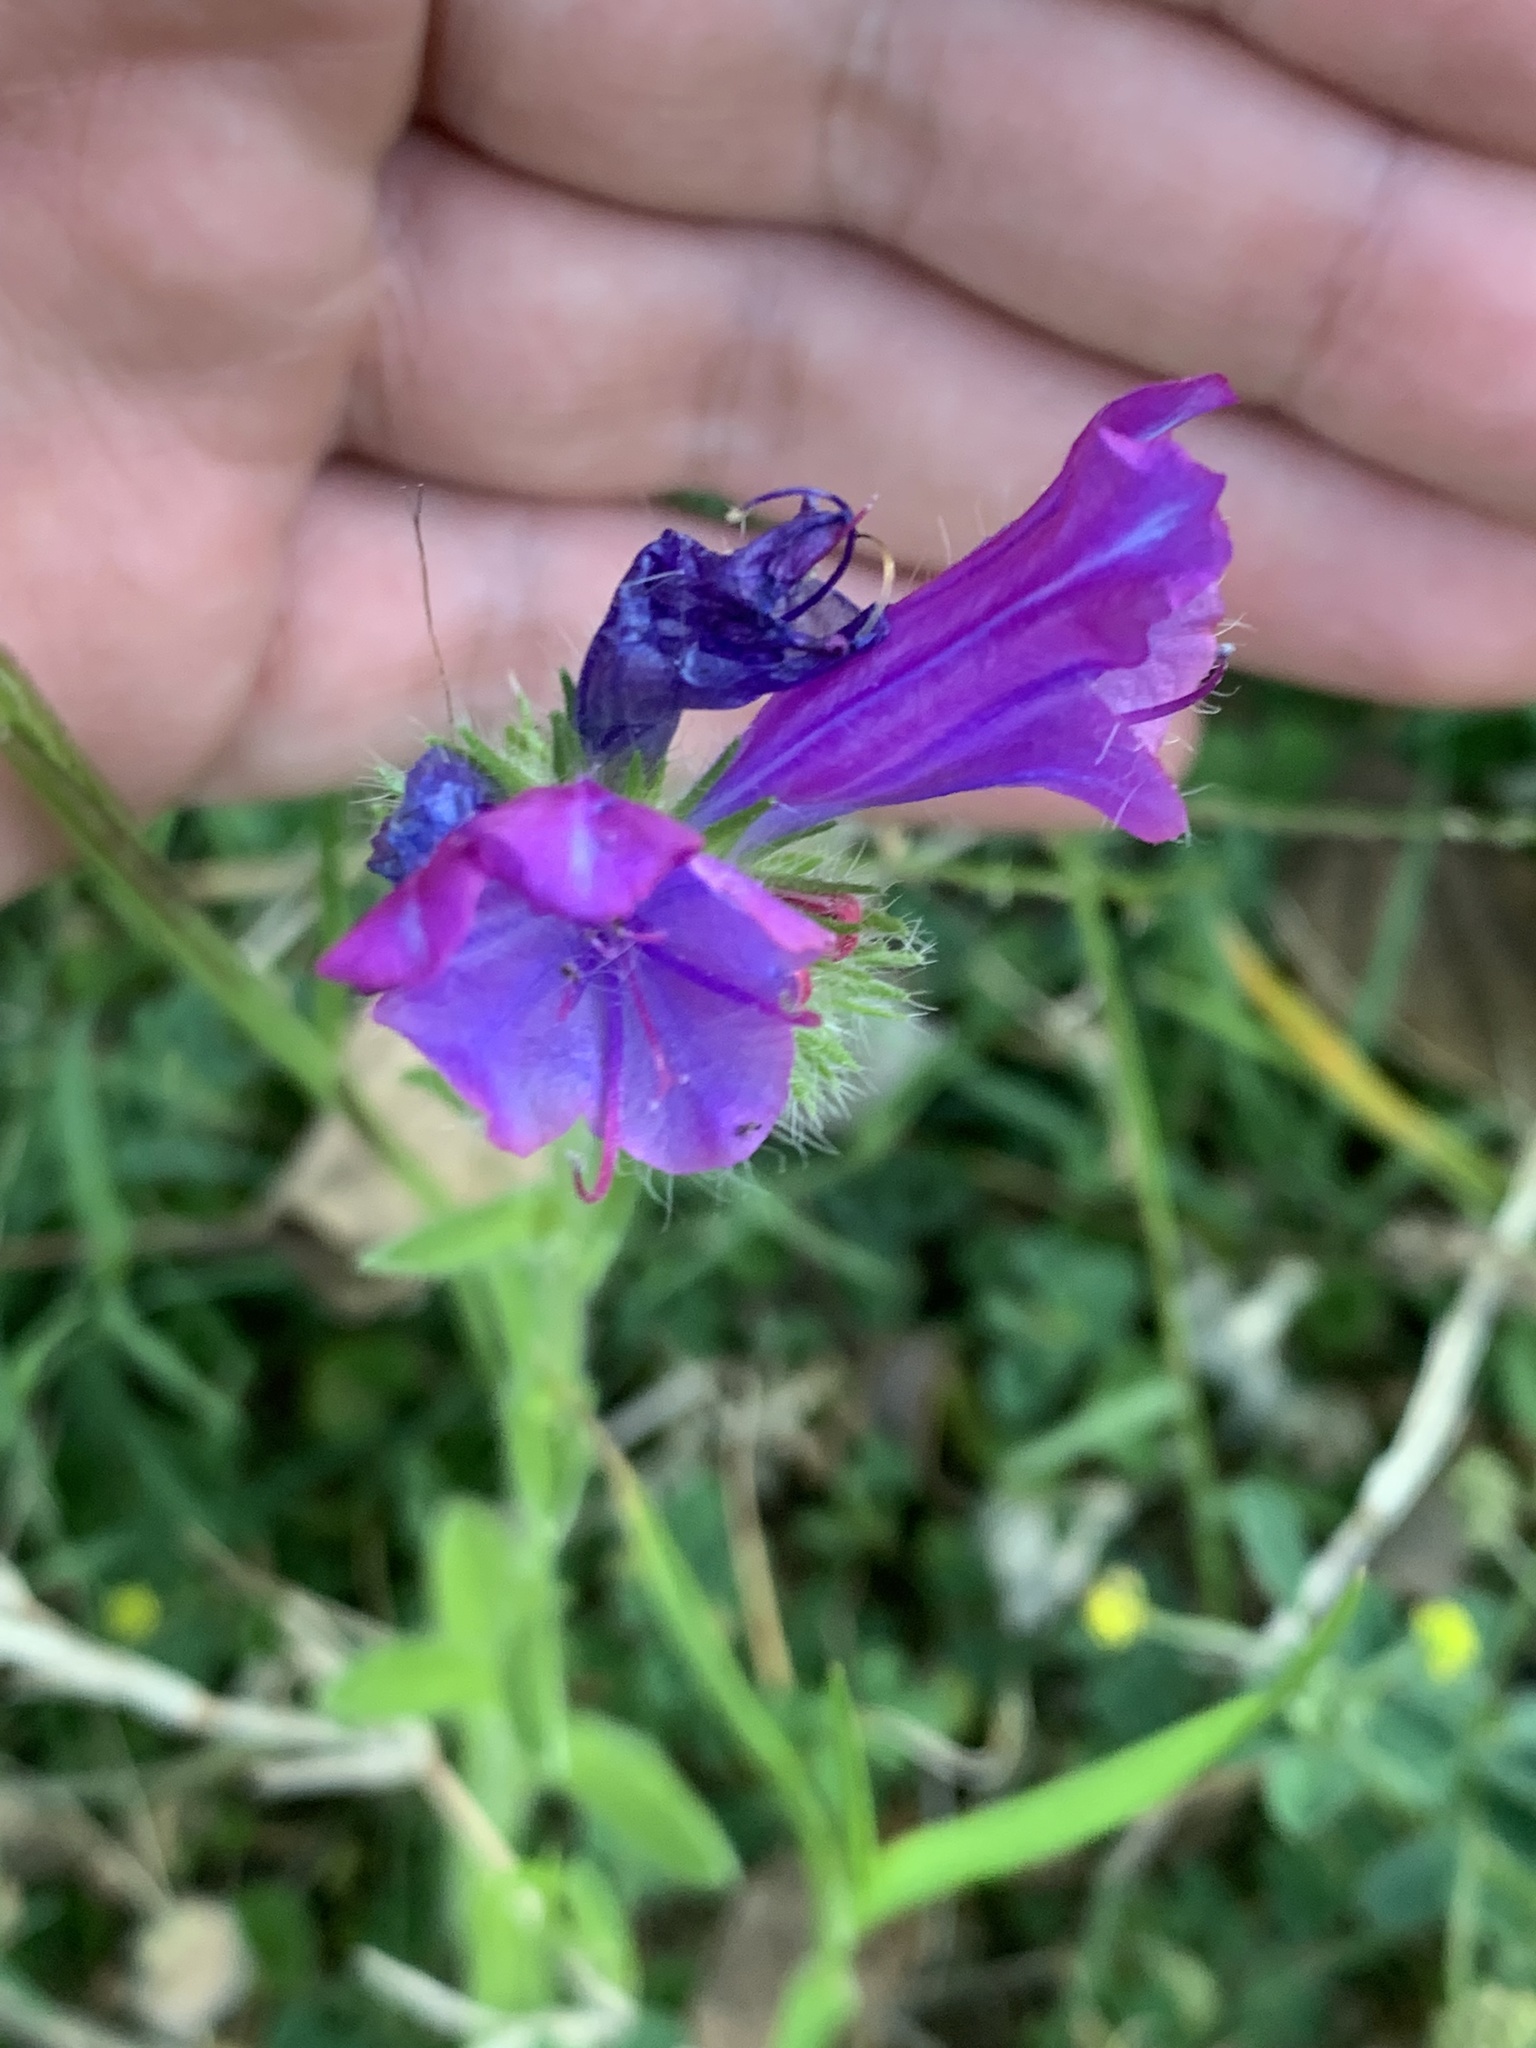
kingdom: Plantae
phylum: Tracheophyta
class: Magnoliopsida
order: Boraginales
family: Boraginaceae
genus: Echium
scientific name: Echium plantagineum
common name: Purple viper's-bugloss
